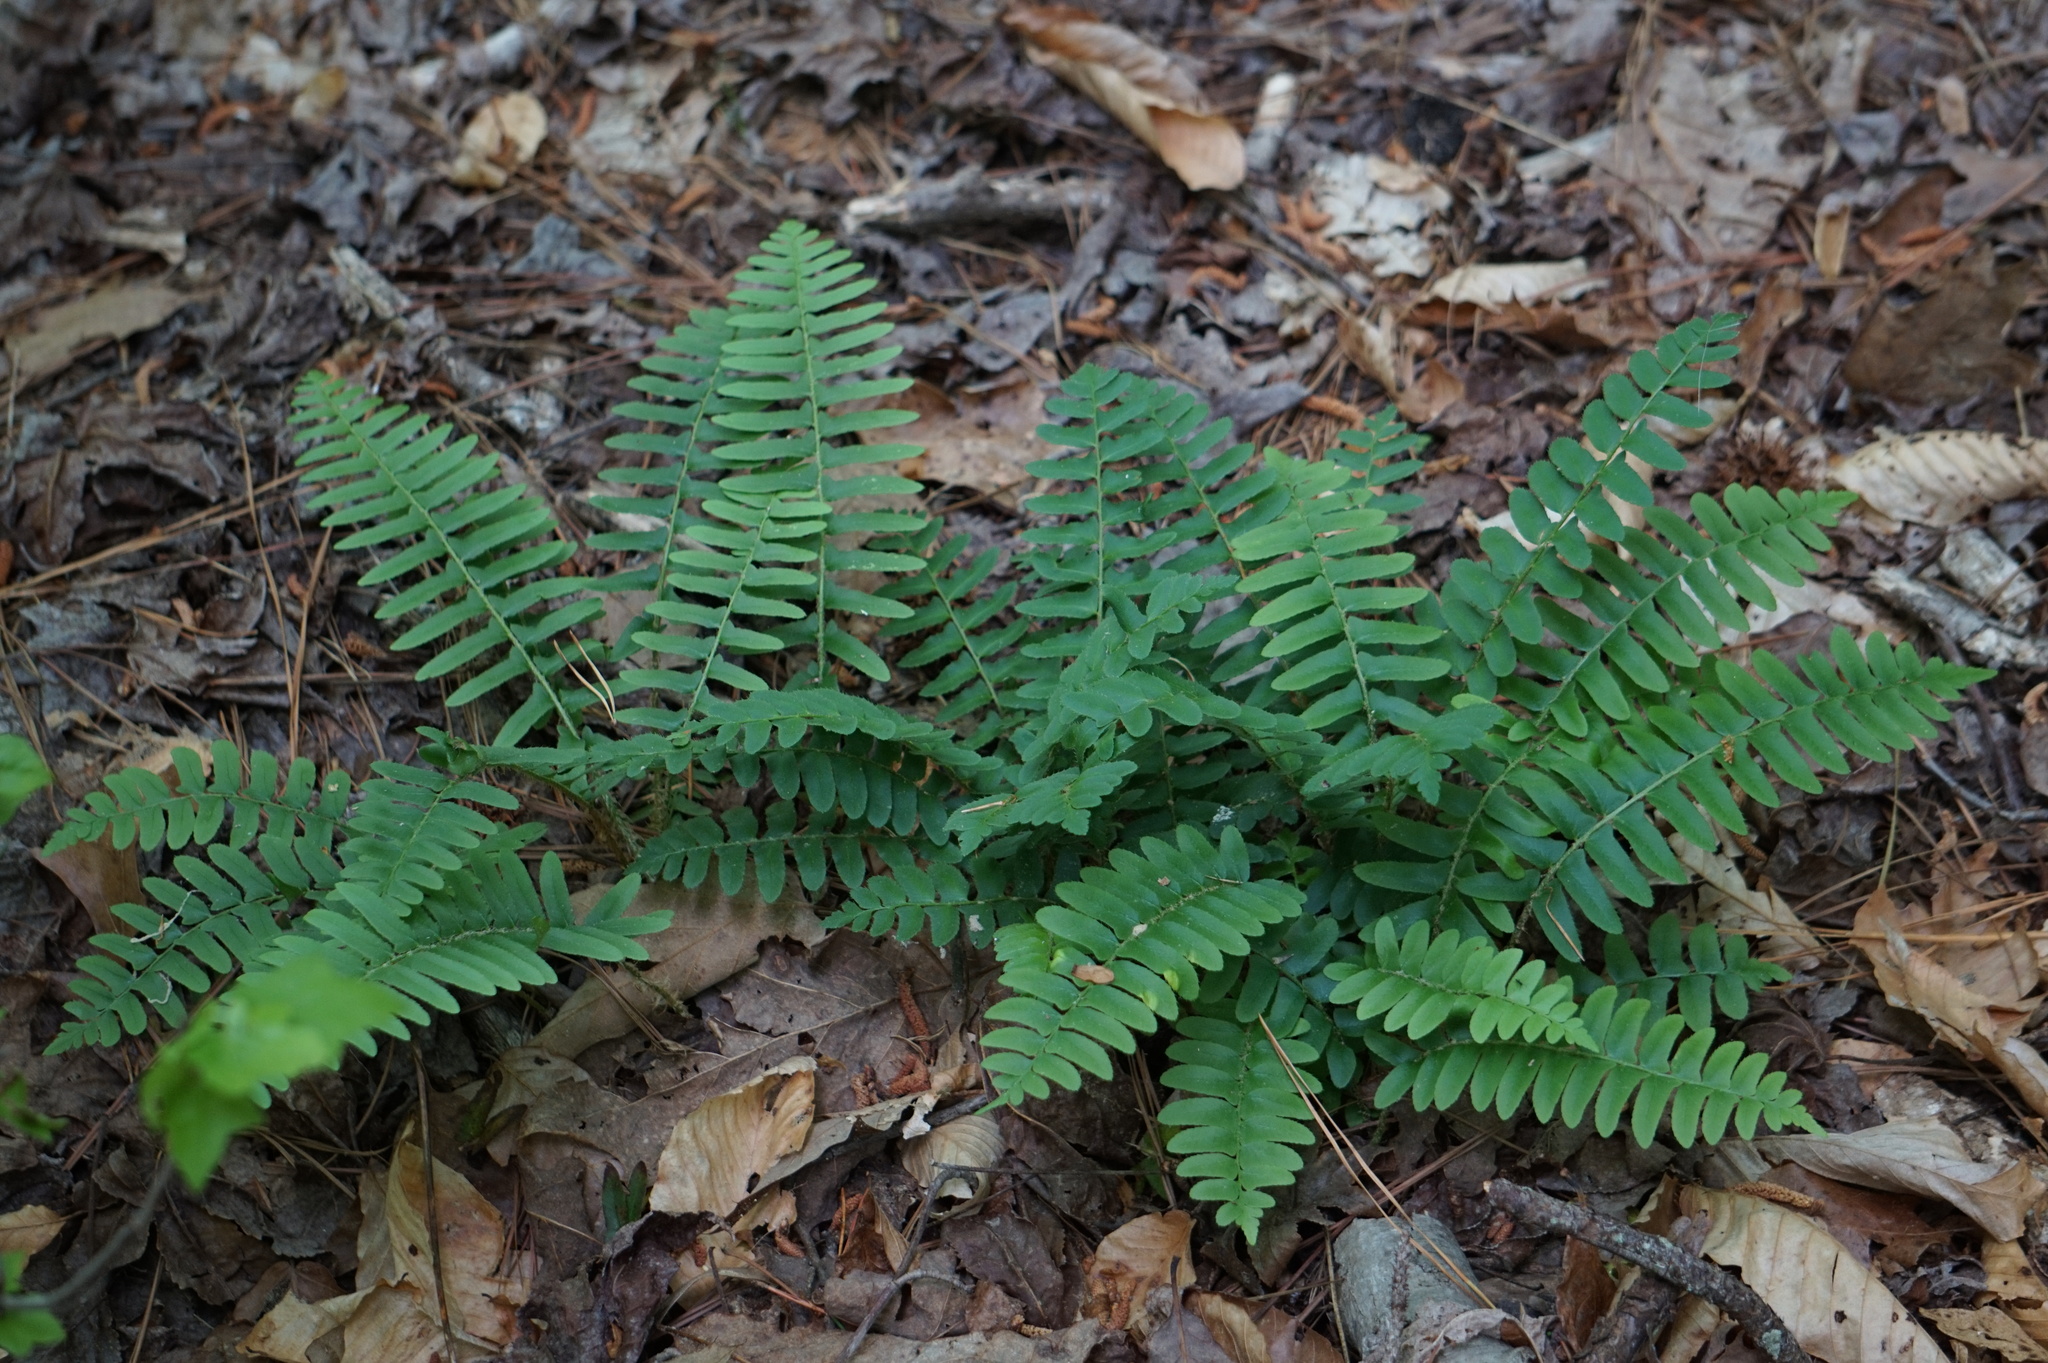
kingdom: Plantae
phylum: Tracheophyta
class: Polypodiopsida
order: Polypodiales
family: Dryopteridaceae
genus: Polystichum
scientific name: Polystichum acrostichoides
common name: Christmas fern
